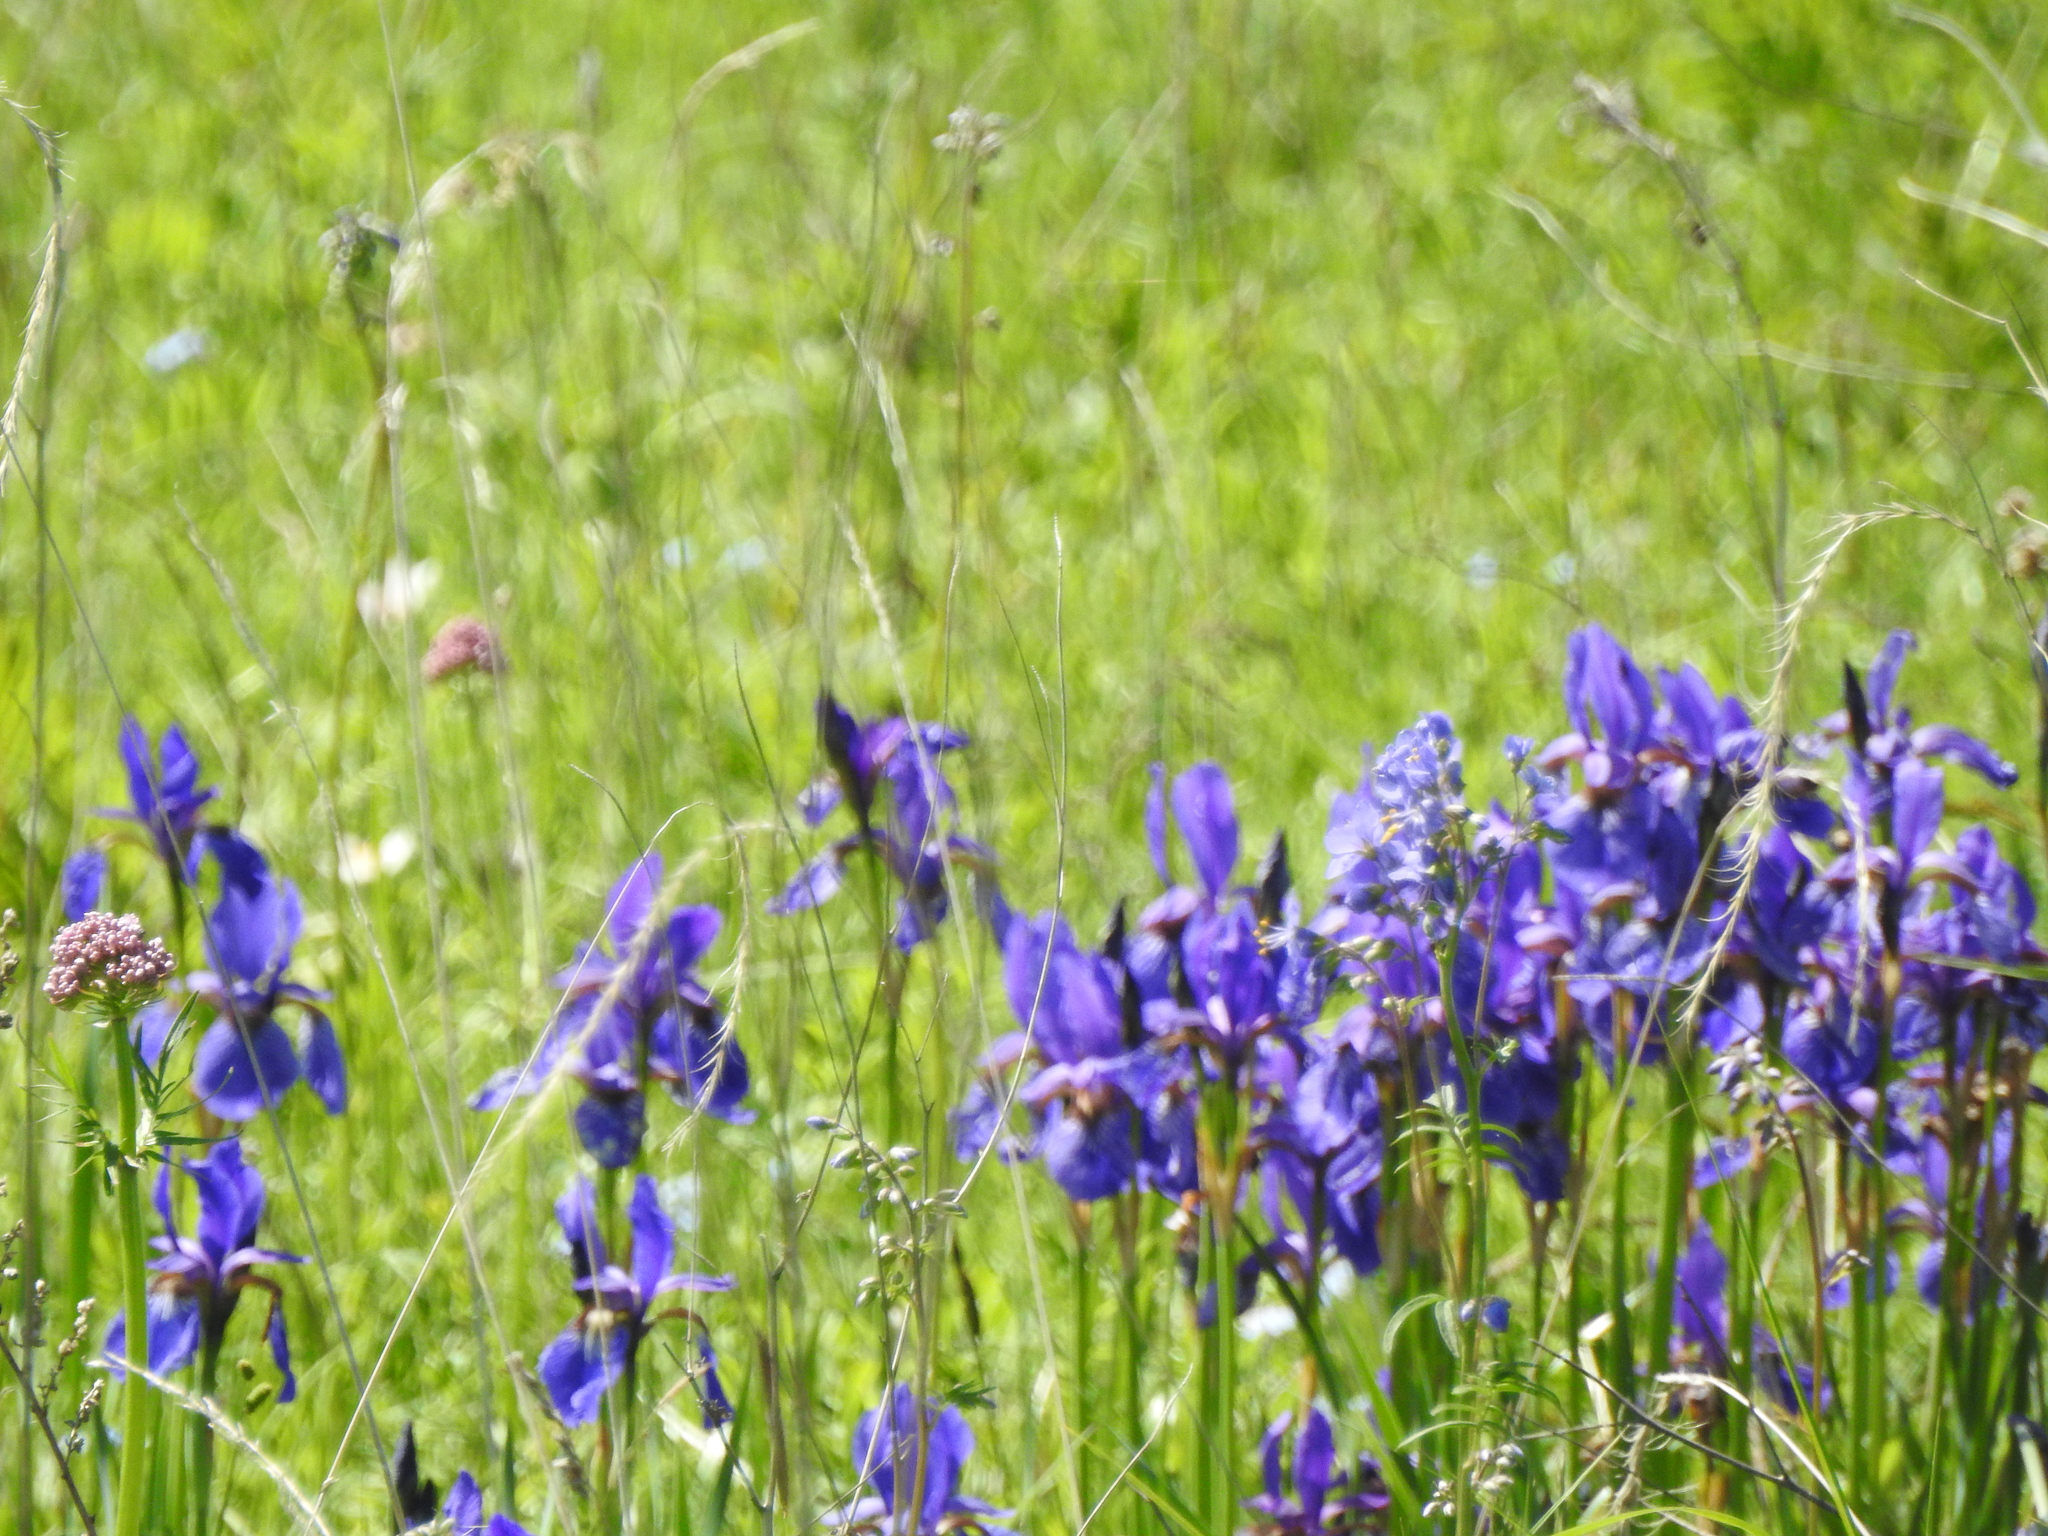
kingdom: Plantae
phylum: Tracheophyta
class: Liliopsida
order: Asparagales
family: Iridaceae
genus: Iris
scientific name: Iris sanguinea
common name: Blood iris
